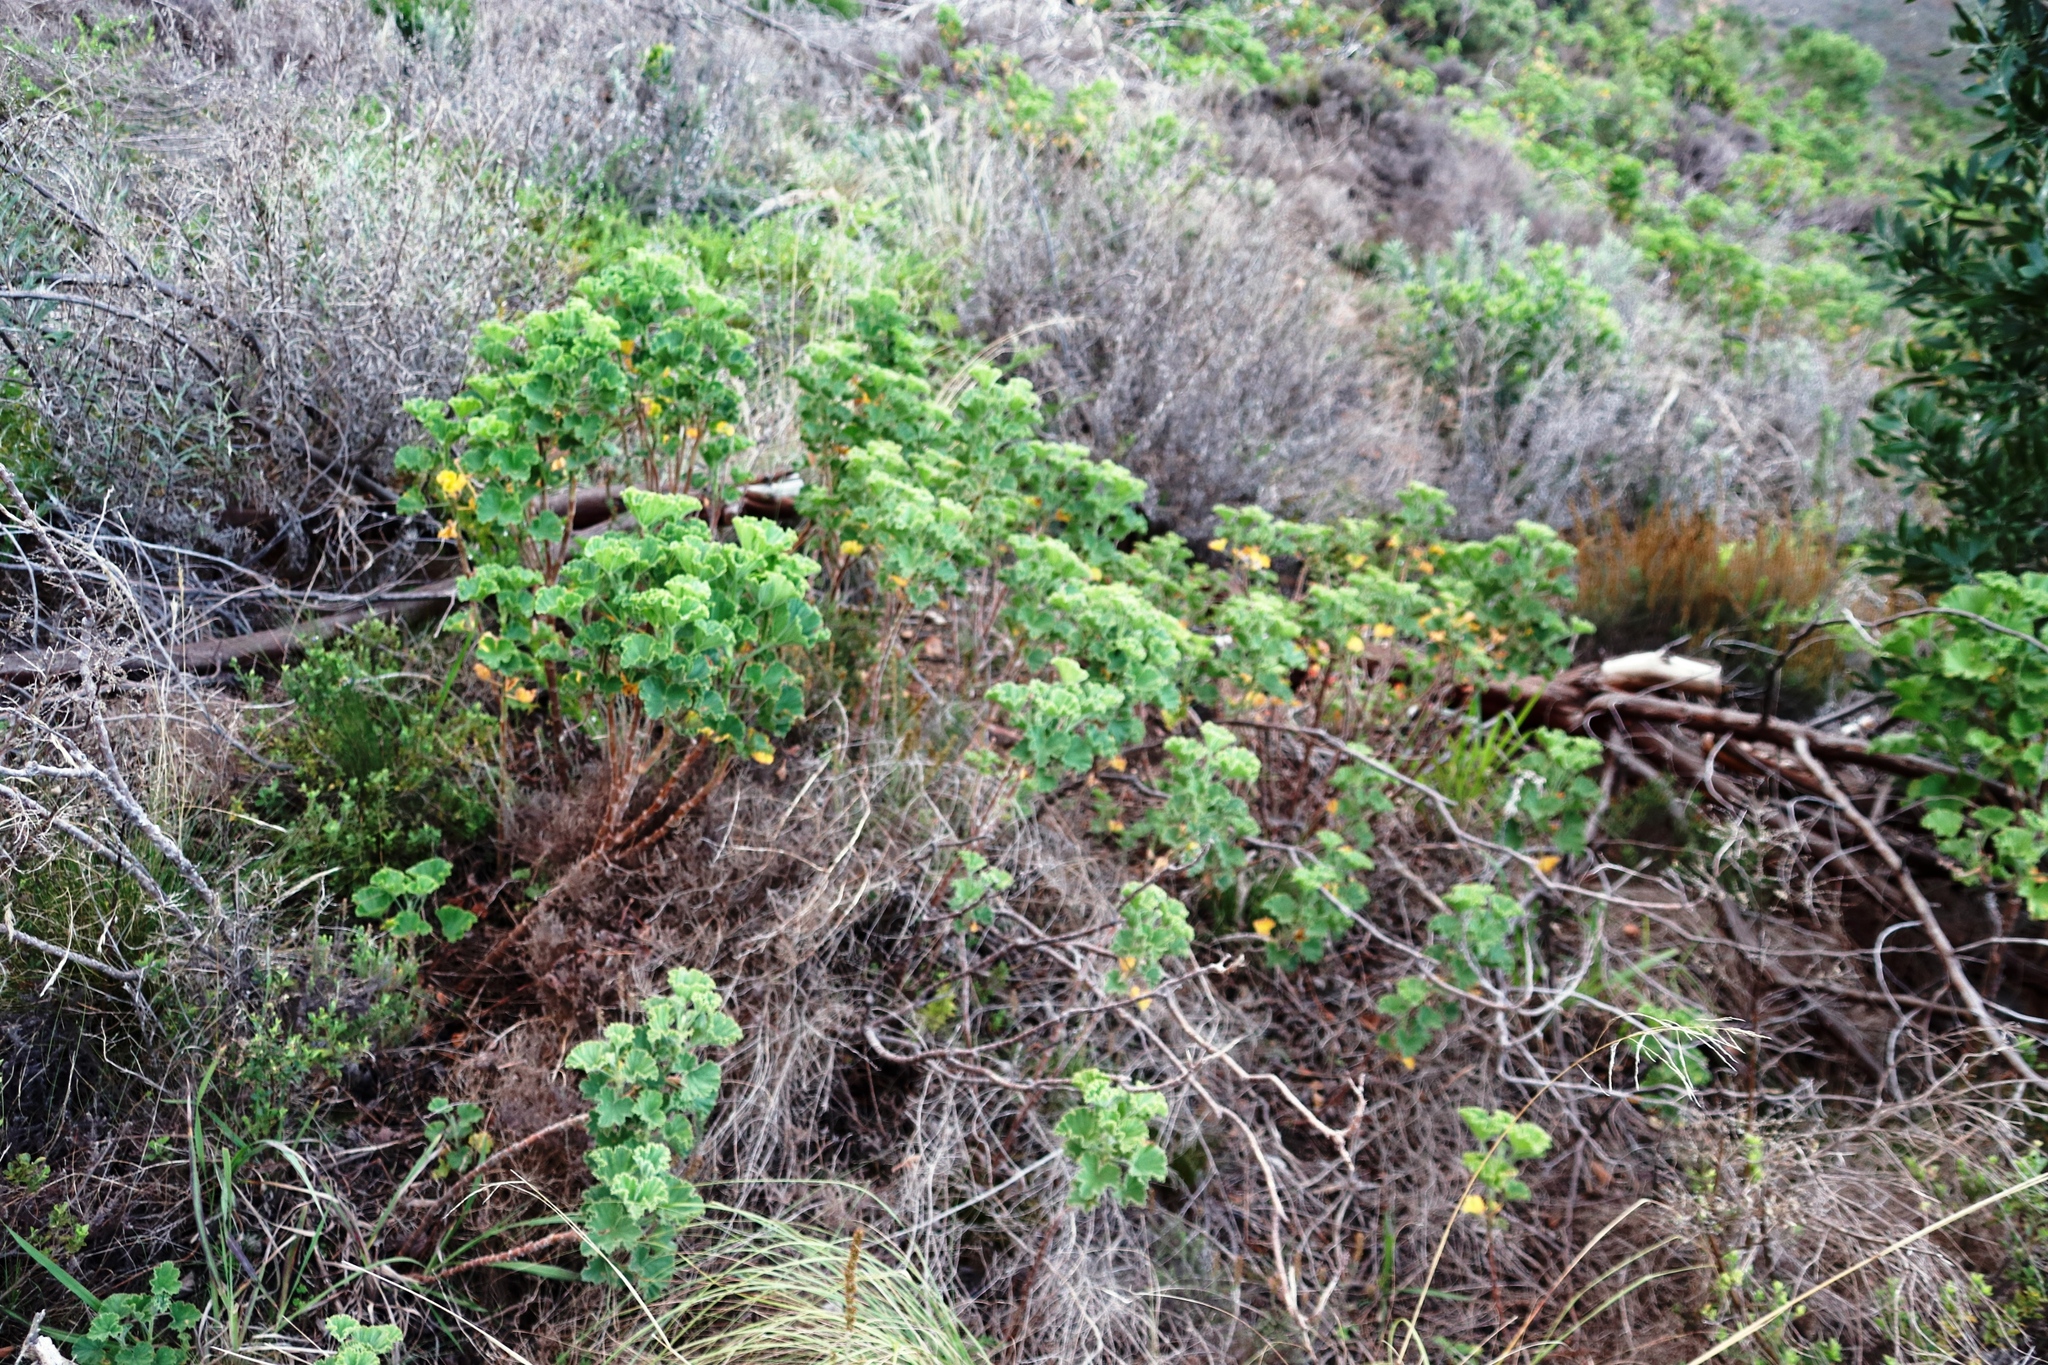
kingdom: Plantae
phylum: Tracheophyta
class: Magnoliopsida
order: Geraniales
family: Geraniaceae
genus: Pelargonium
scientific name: Pelargonium cucullatum
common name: Tree pelargonium
